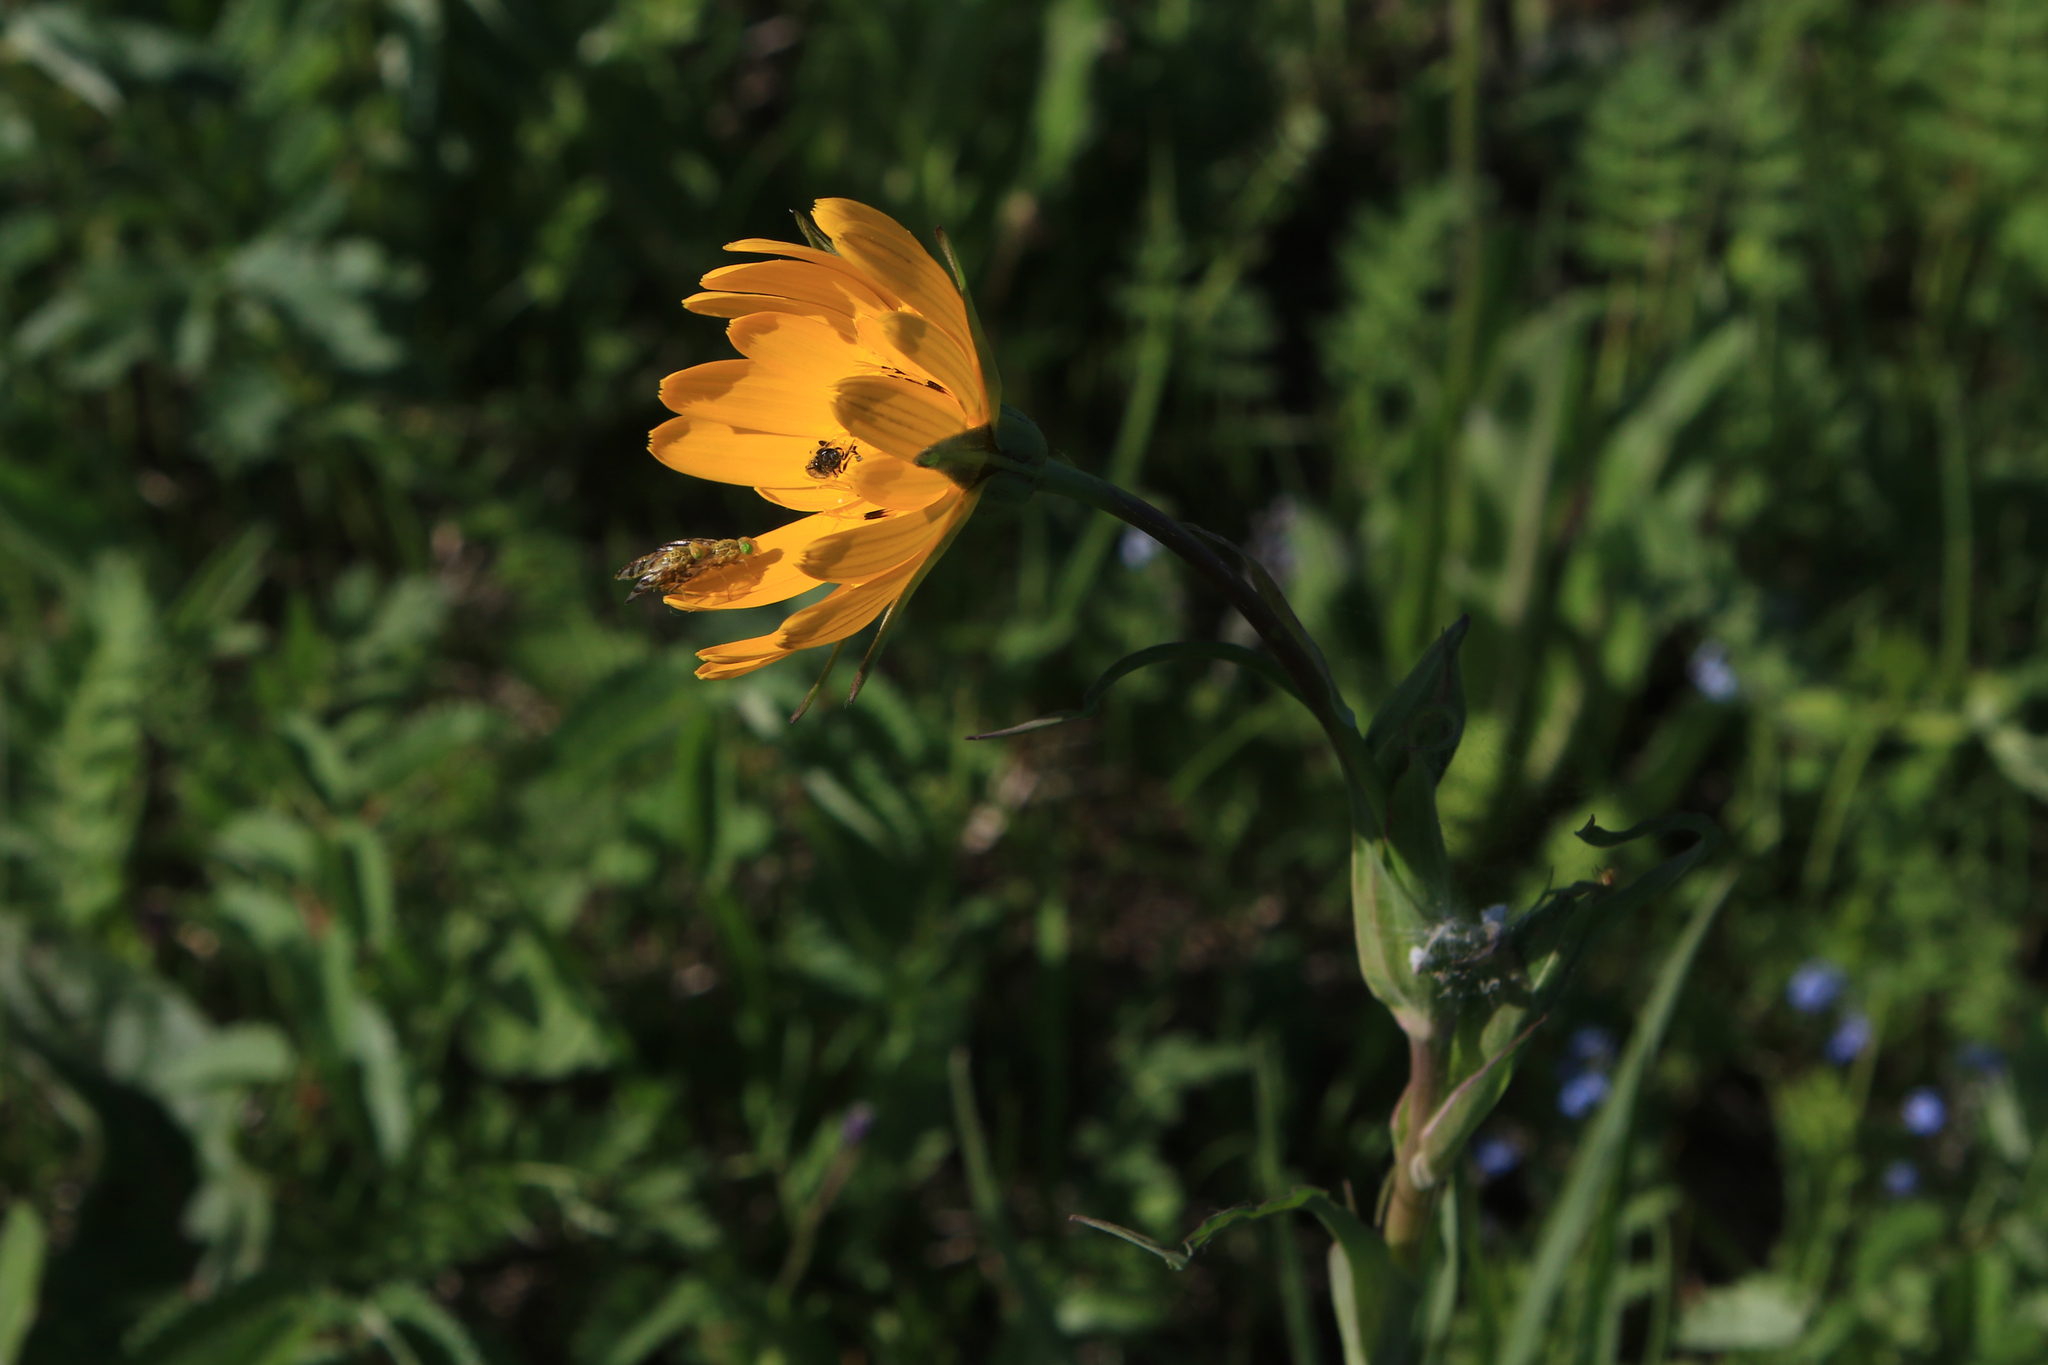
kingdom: Plantae
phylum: Tracheophyta
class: Magnoliopsida
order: Asterales
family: Asteraceae
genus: Tragopogon
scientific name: Tragopogon orientalis
